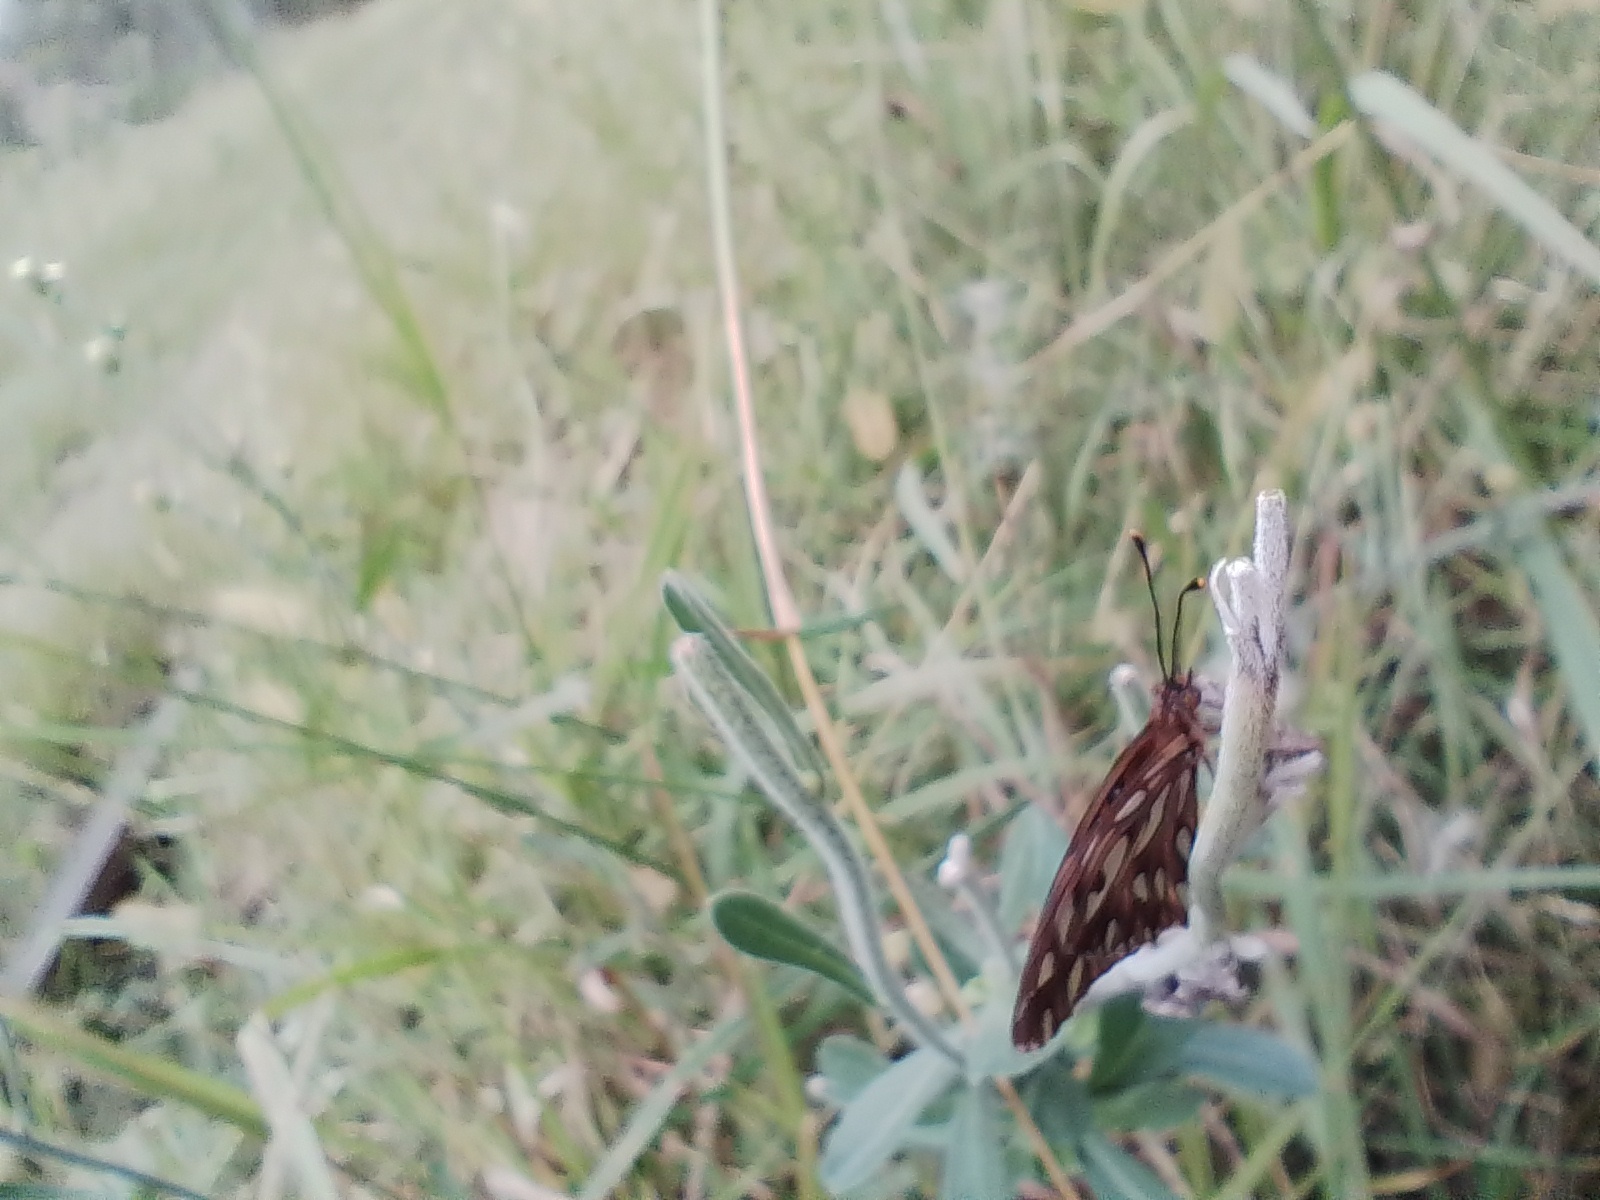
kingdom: Animalia
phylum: Arthropoda
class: Insecta
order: Lepidoptera
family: Nymphalidae
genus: Dione
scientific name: Dione vanillae
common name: Gulf fritillary
